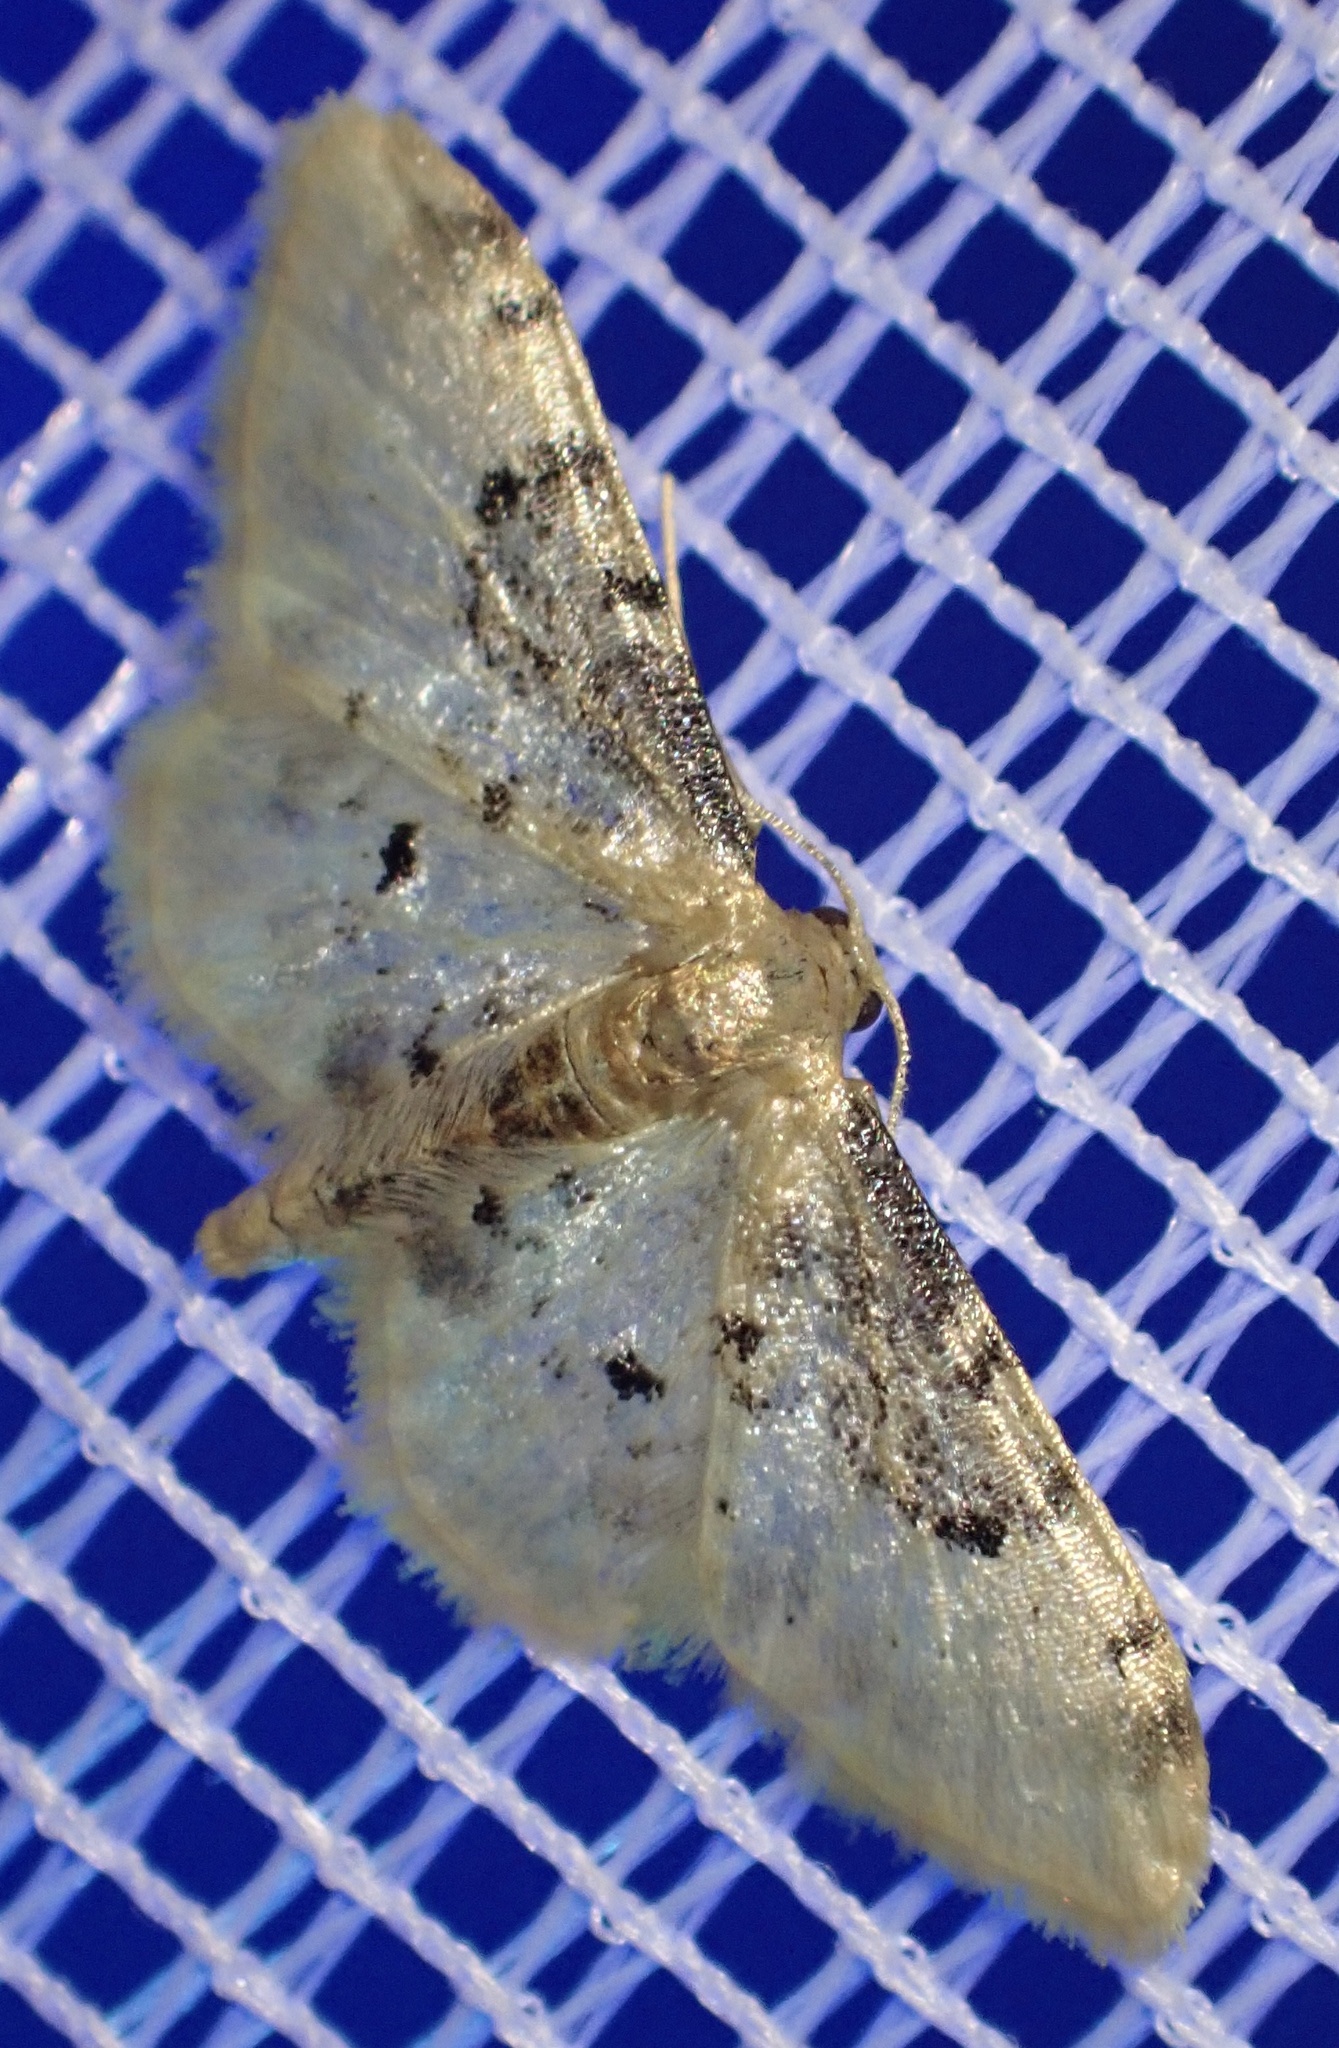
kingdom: Animalia
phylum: Arthropoda
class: Insecta
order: Lepidoptera
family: Geometridae
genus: Idaea
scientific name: Idaea filicata
